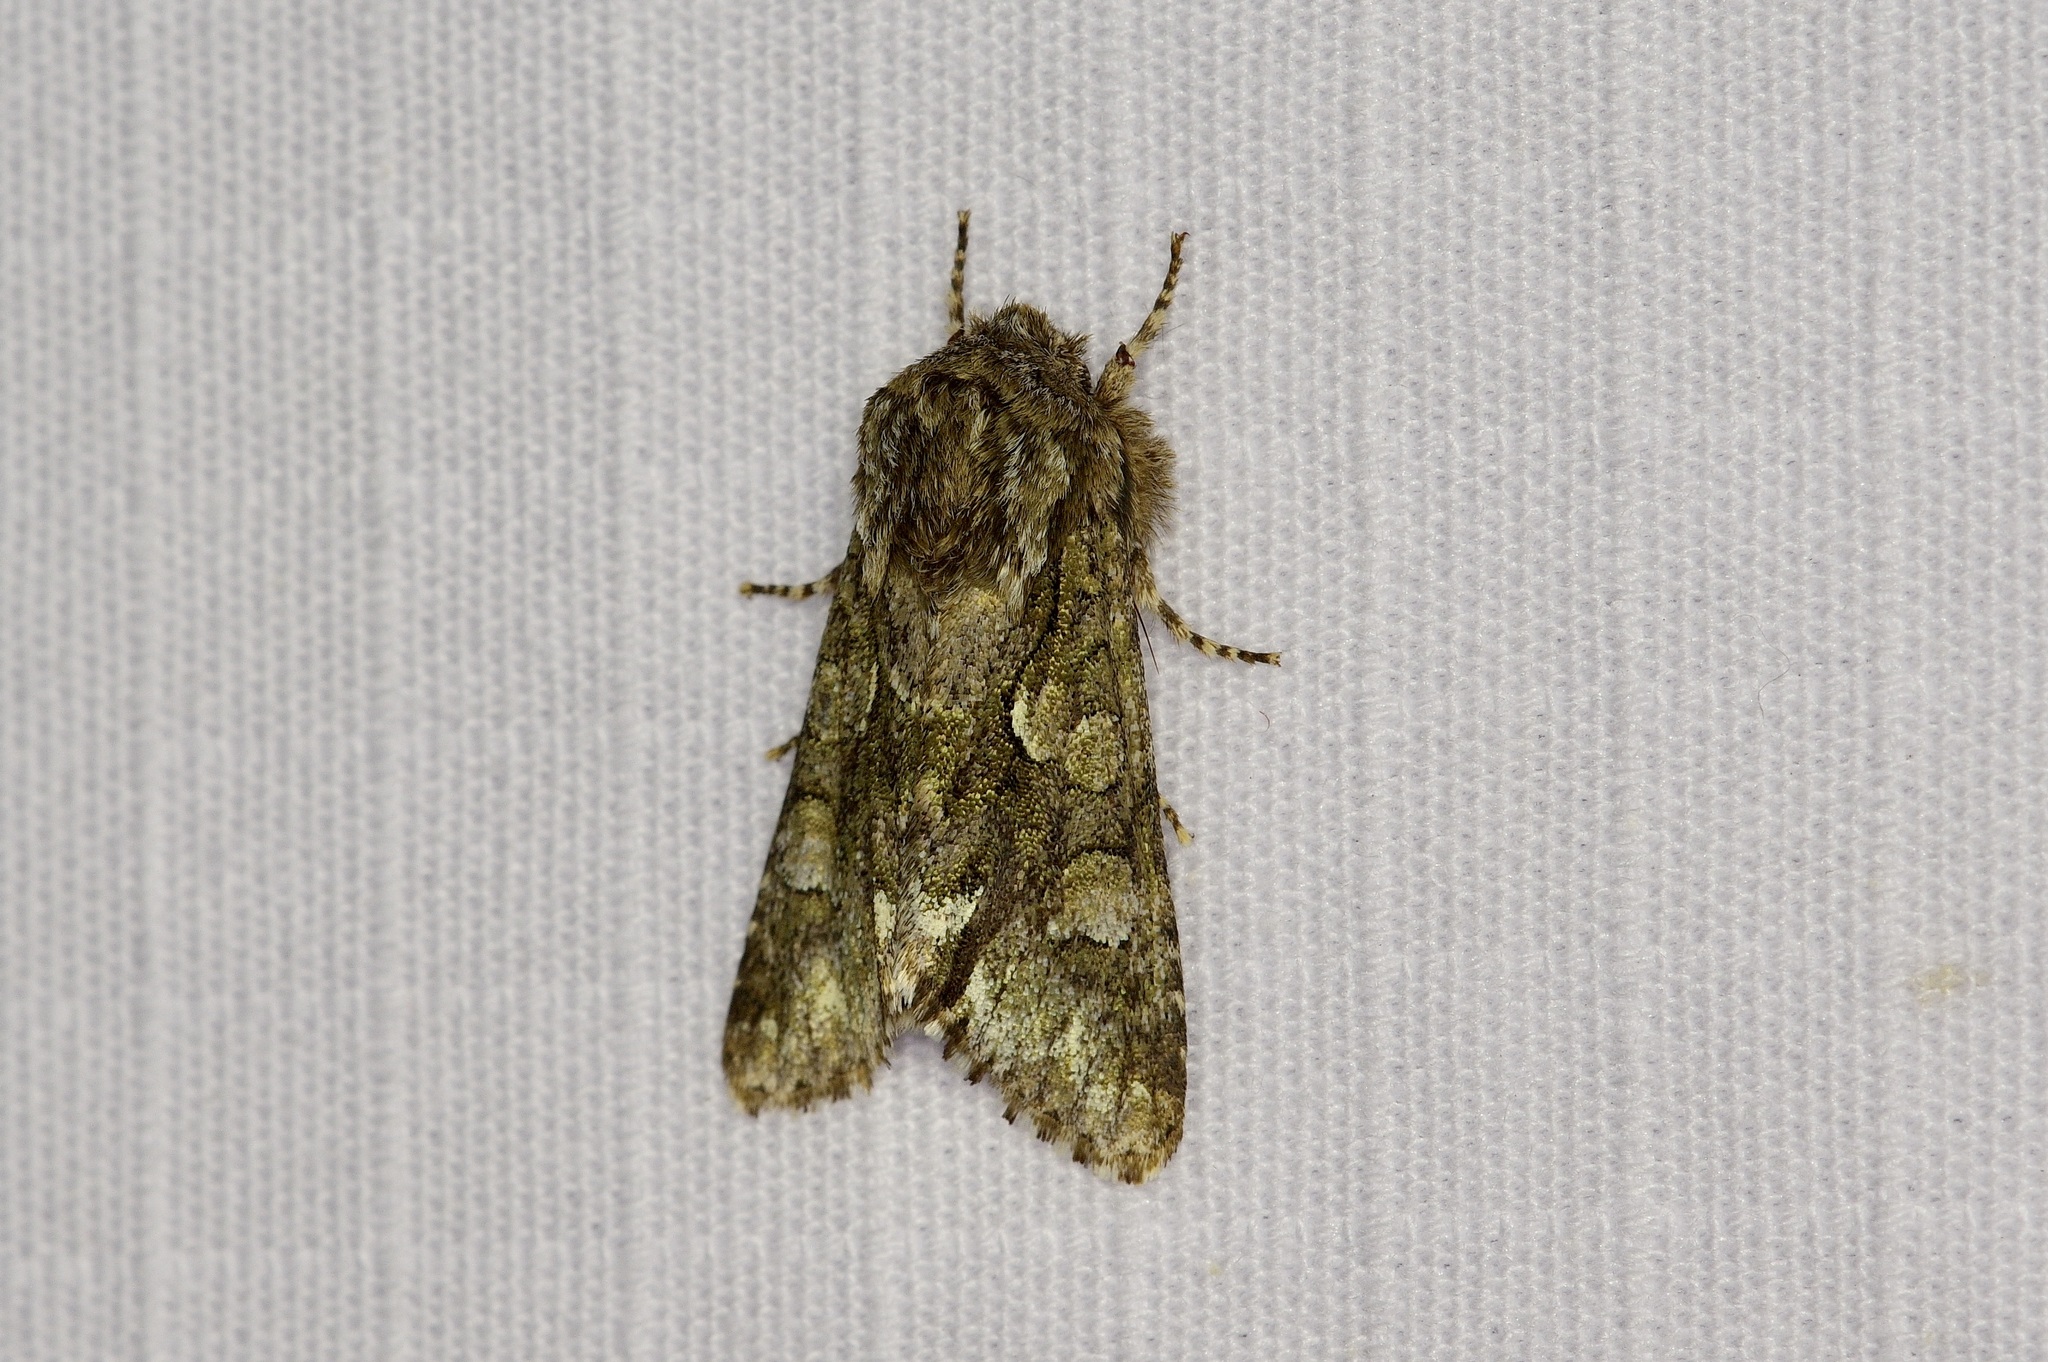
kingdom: Animalia
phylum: Arthropoda
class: Insecta
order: Lepidoptera
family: Noctuidae
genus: Psaphida
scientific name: Psaphida resumens
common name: Figure-eight sallow
